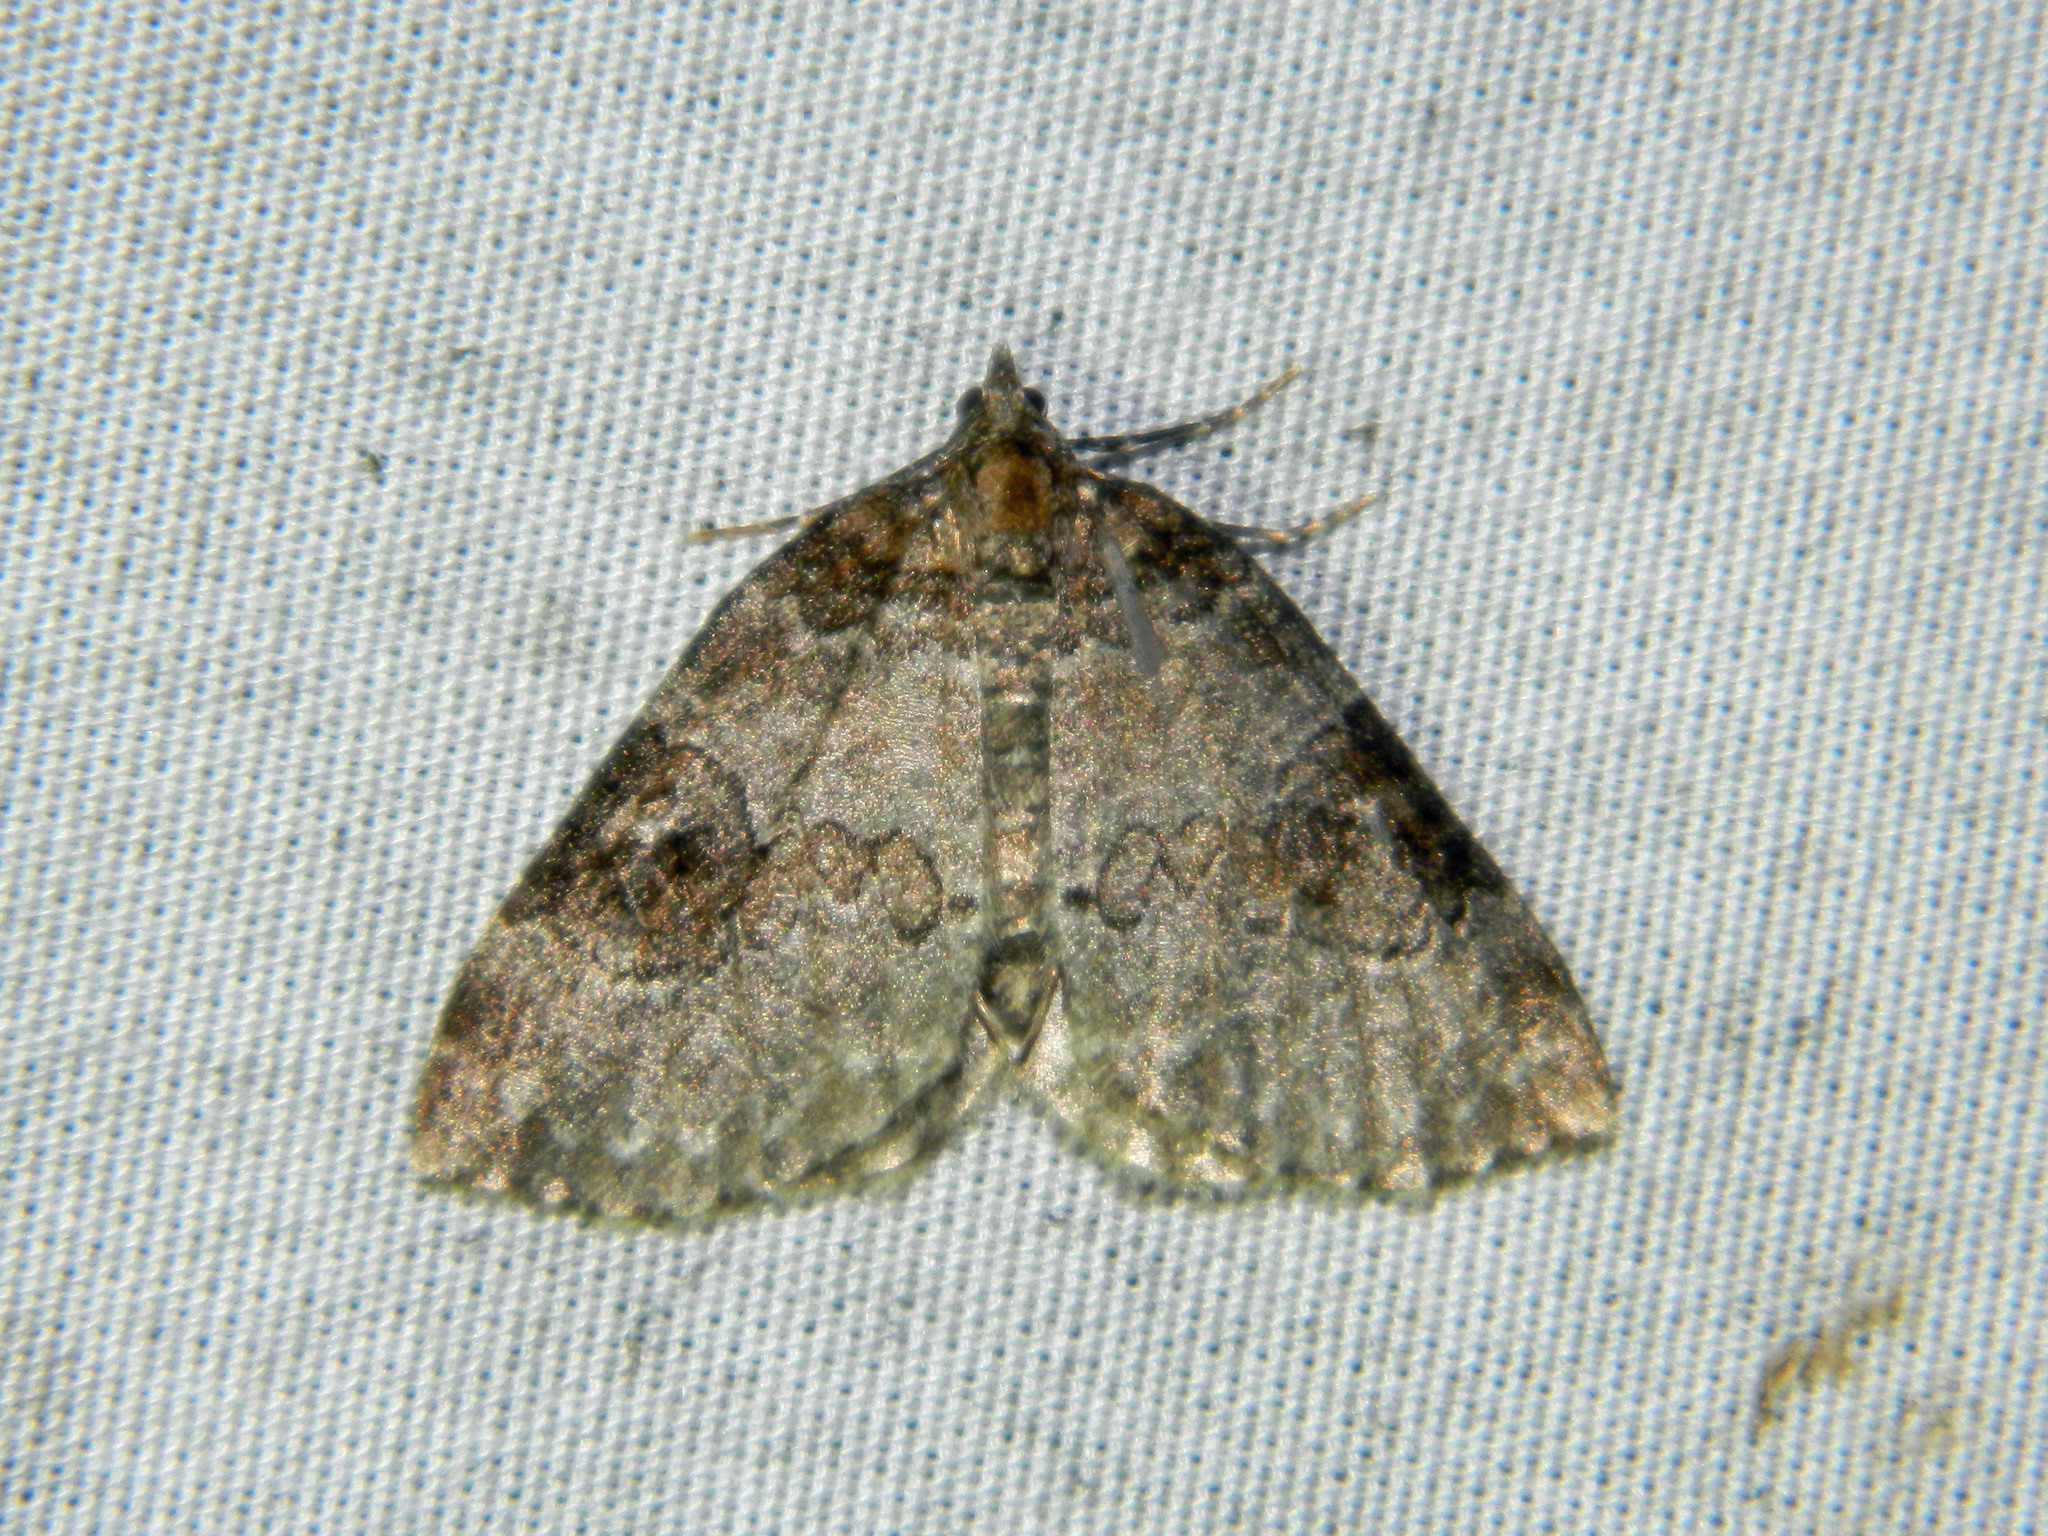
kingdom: Animalia
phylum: Arthropoda
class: Insecta
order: Lepidoptera
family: Geometridae
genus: Plemyria
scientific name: Plemyria georgii
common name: George's carpet moth
